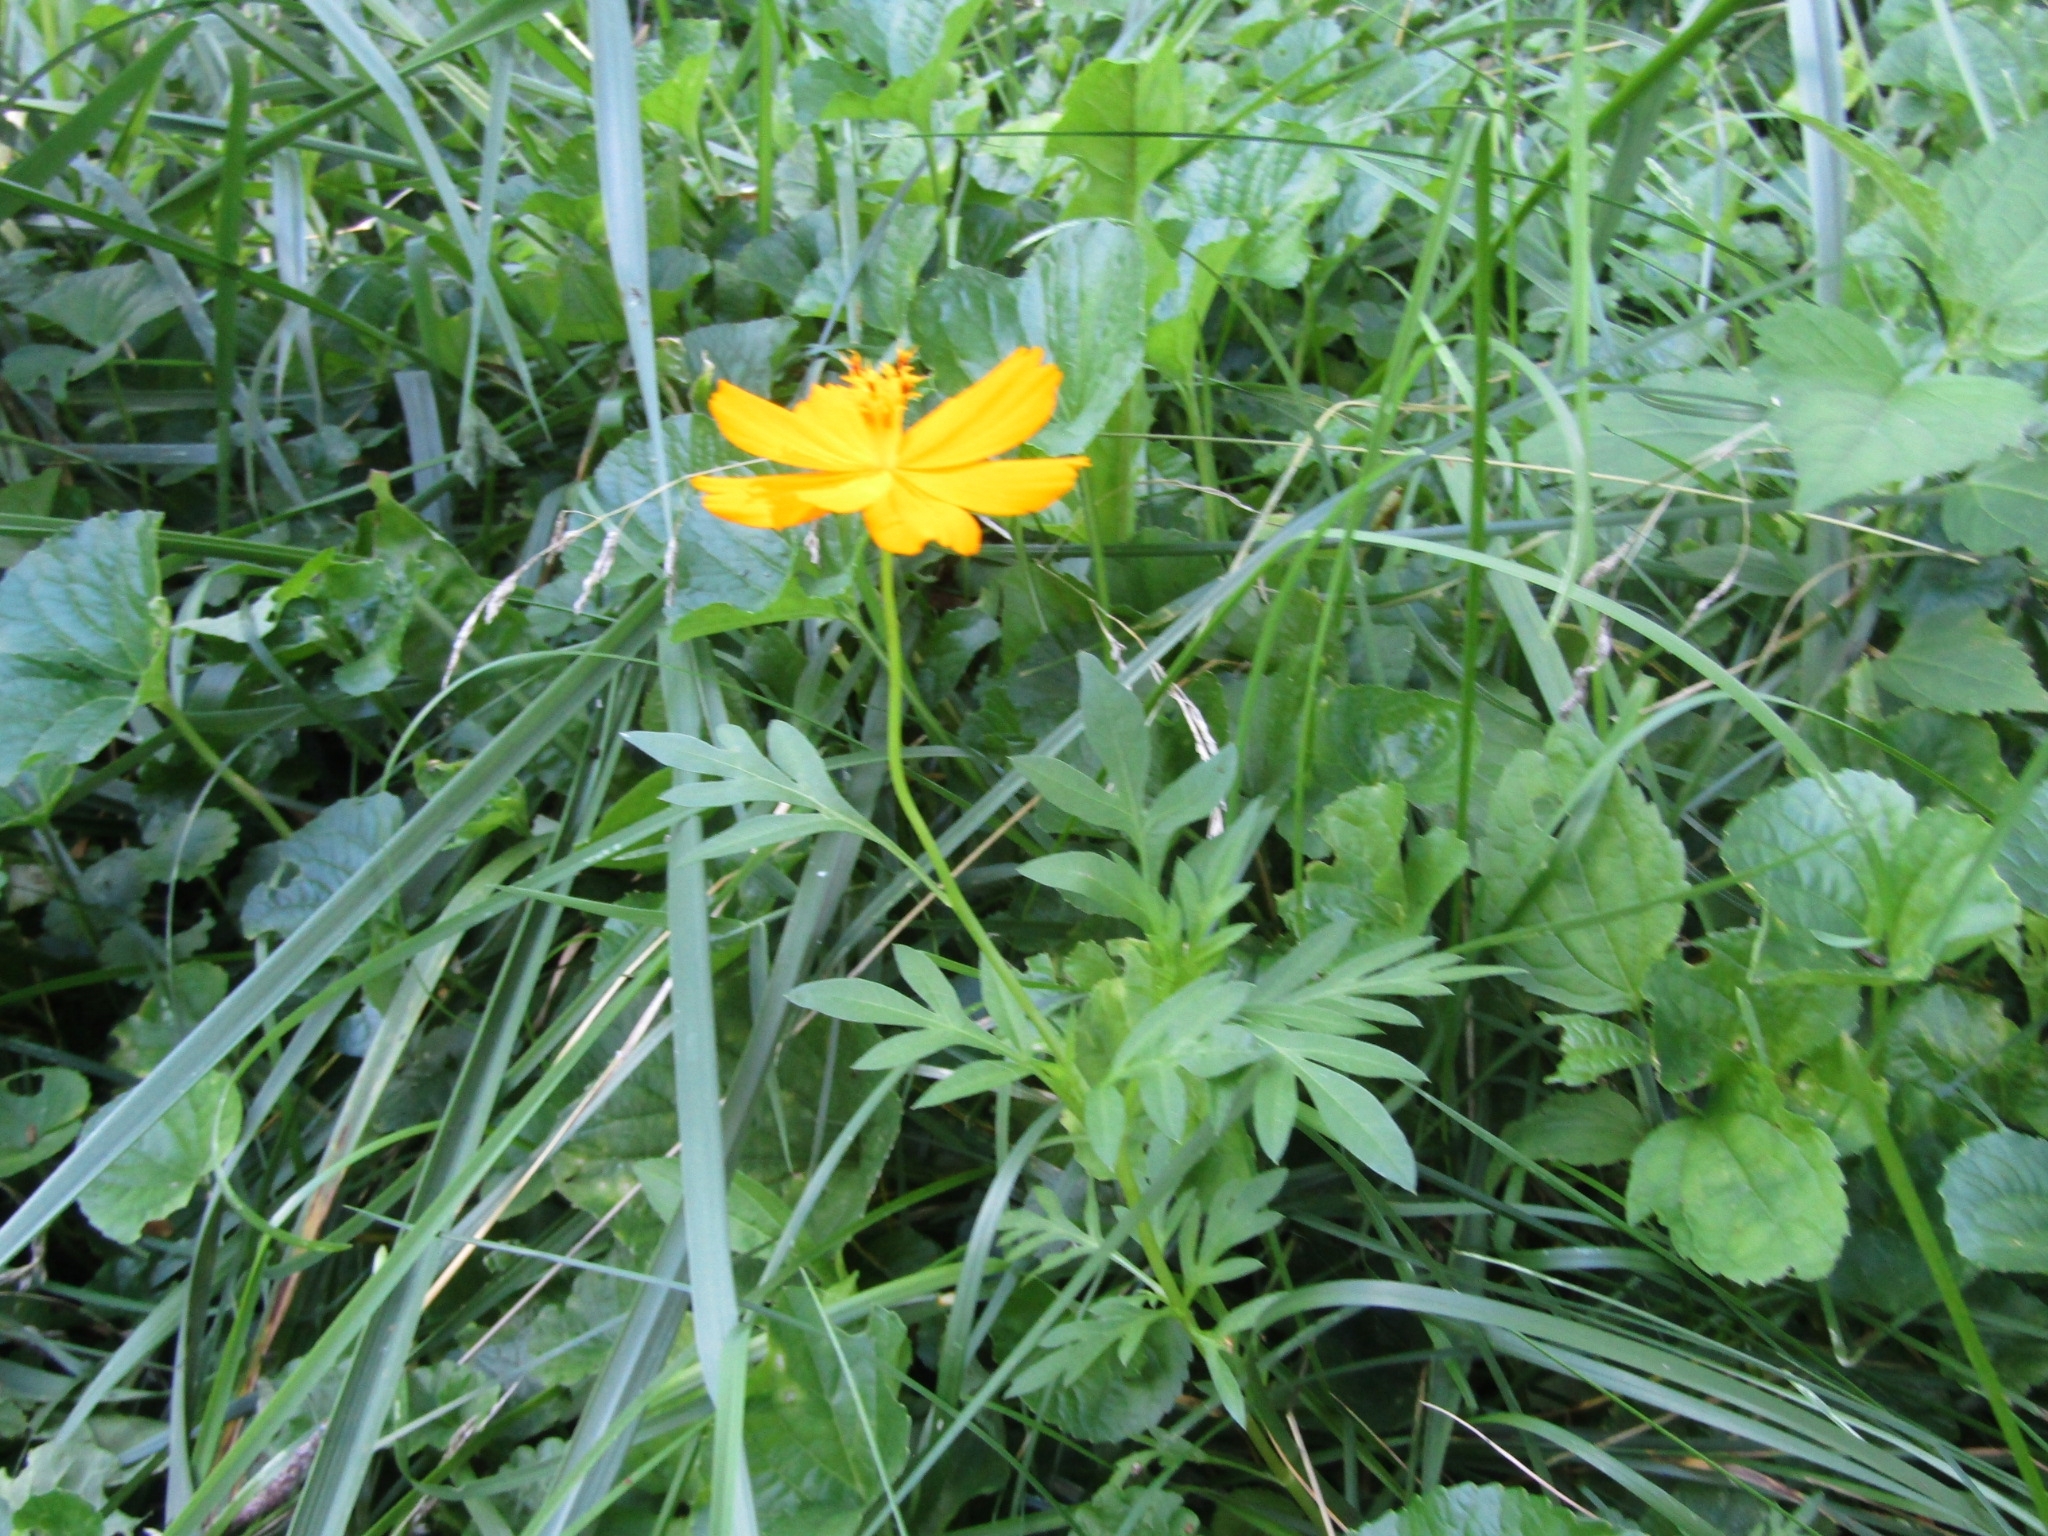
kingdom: Plantae
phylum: Tracheophyta
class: Magnoliopsida
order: Asterales
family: Asteraceae
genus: Cosmos
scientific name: Cosmos sulphureus
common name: Sulphur cosmos
